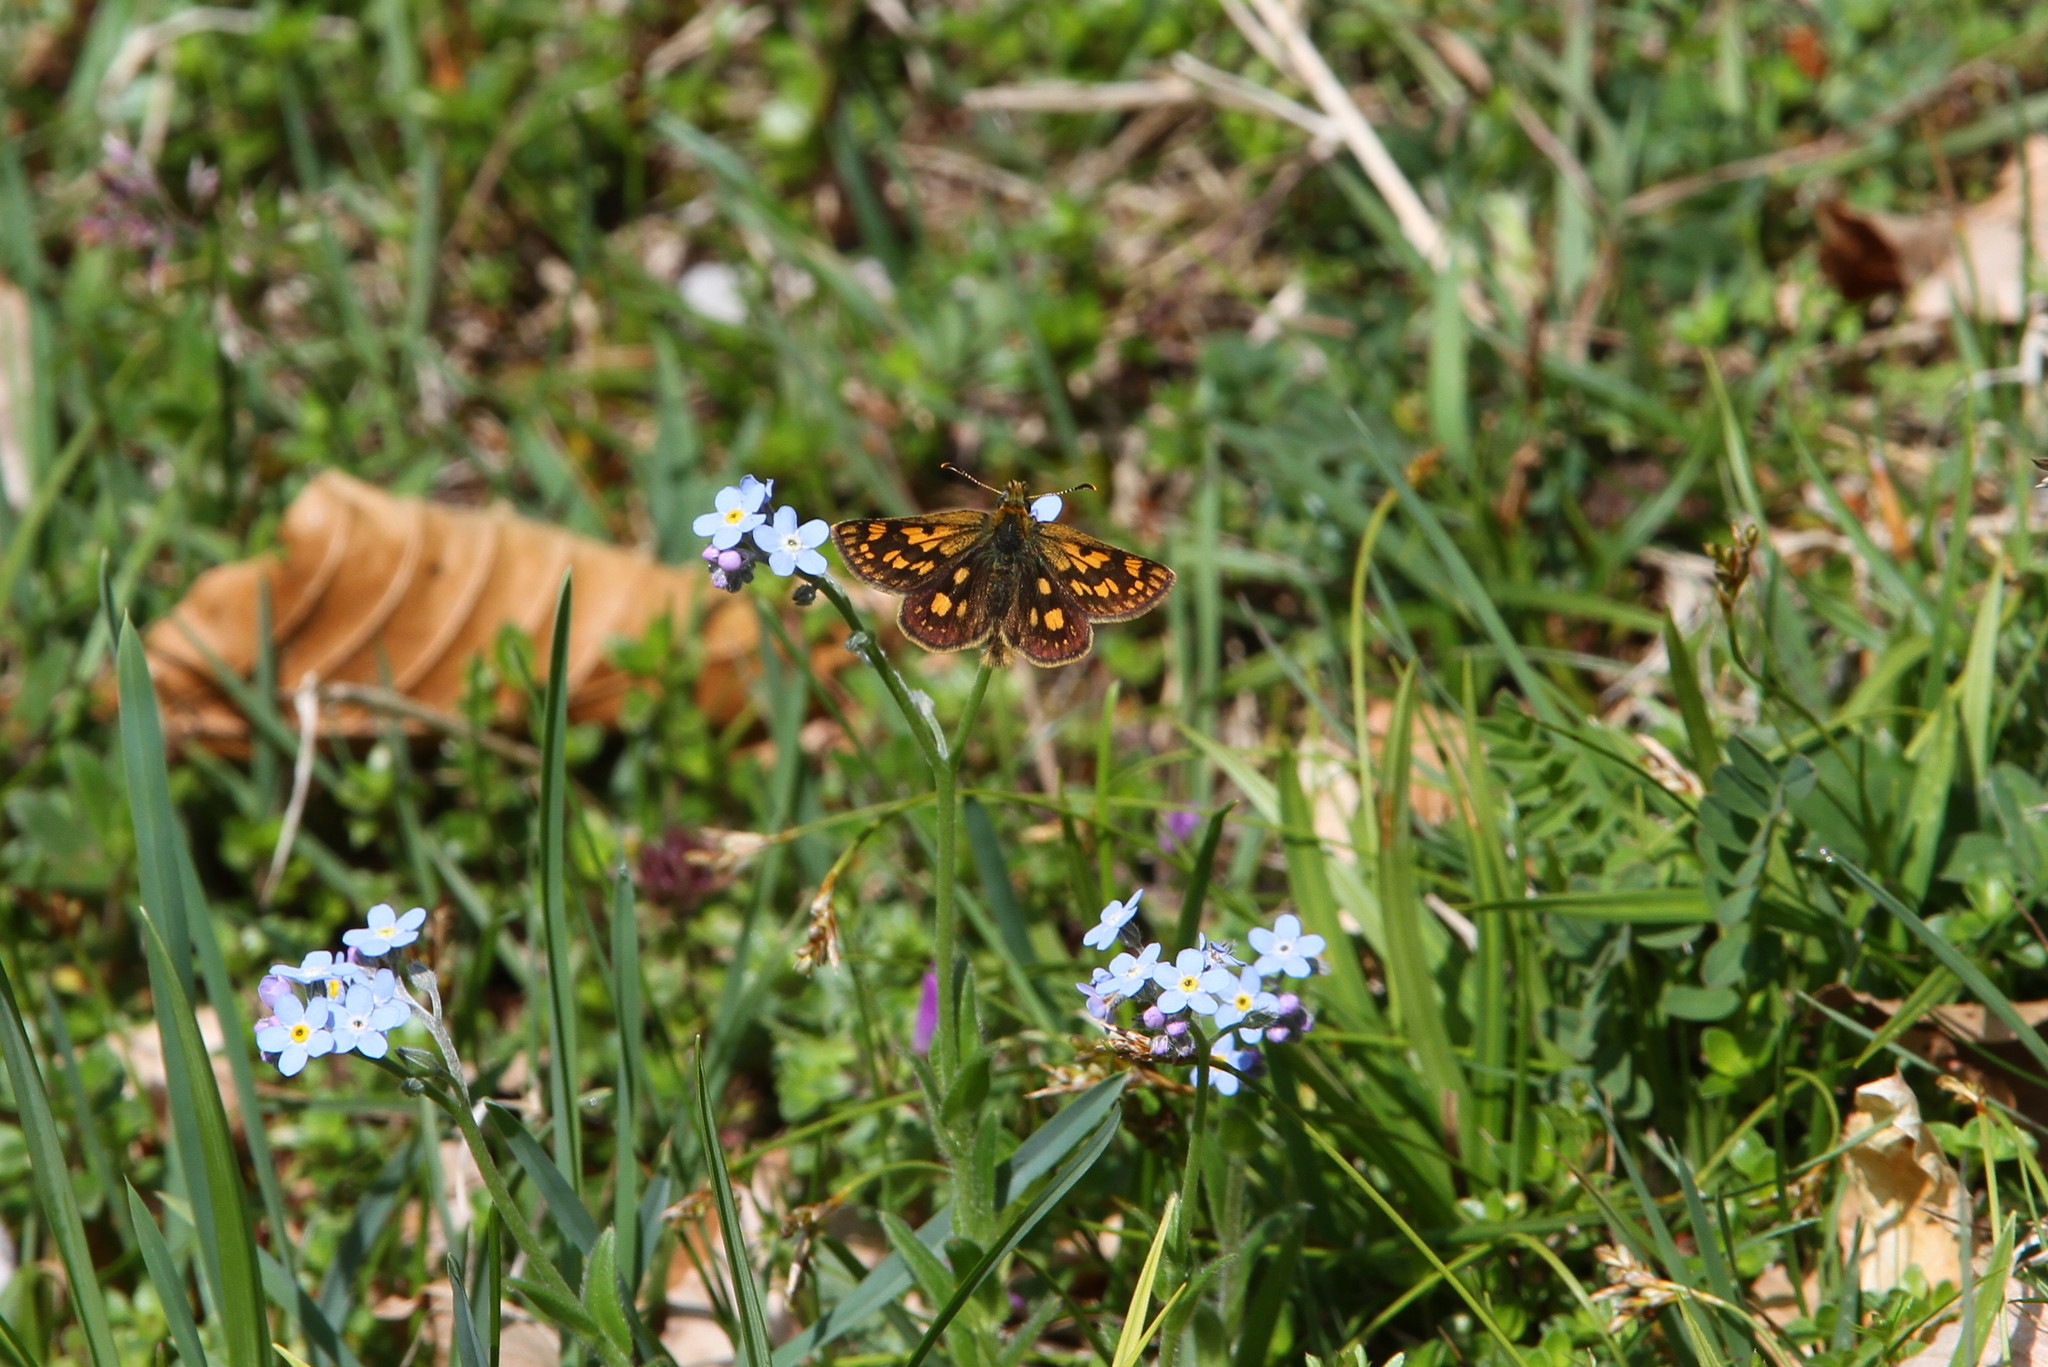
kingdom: Animalia
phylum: Arthropoda
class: Insecta
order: Lepidoptera
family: Hesperiidae
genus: Carterocephalus
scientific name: Carterocephalus palaemon
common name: Chequered skipper
